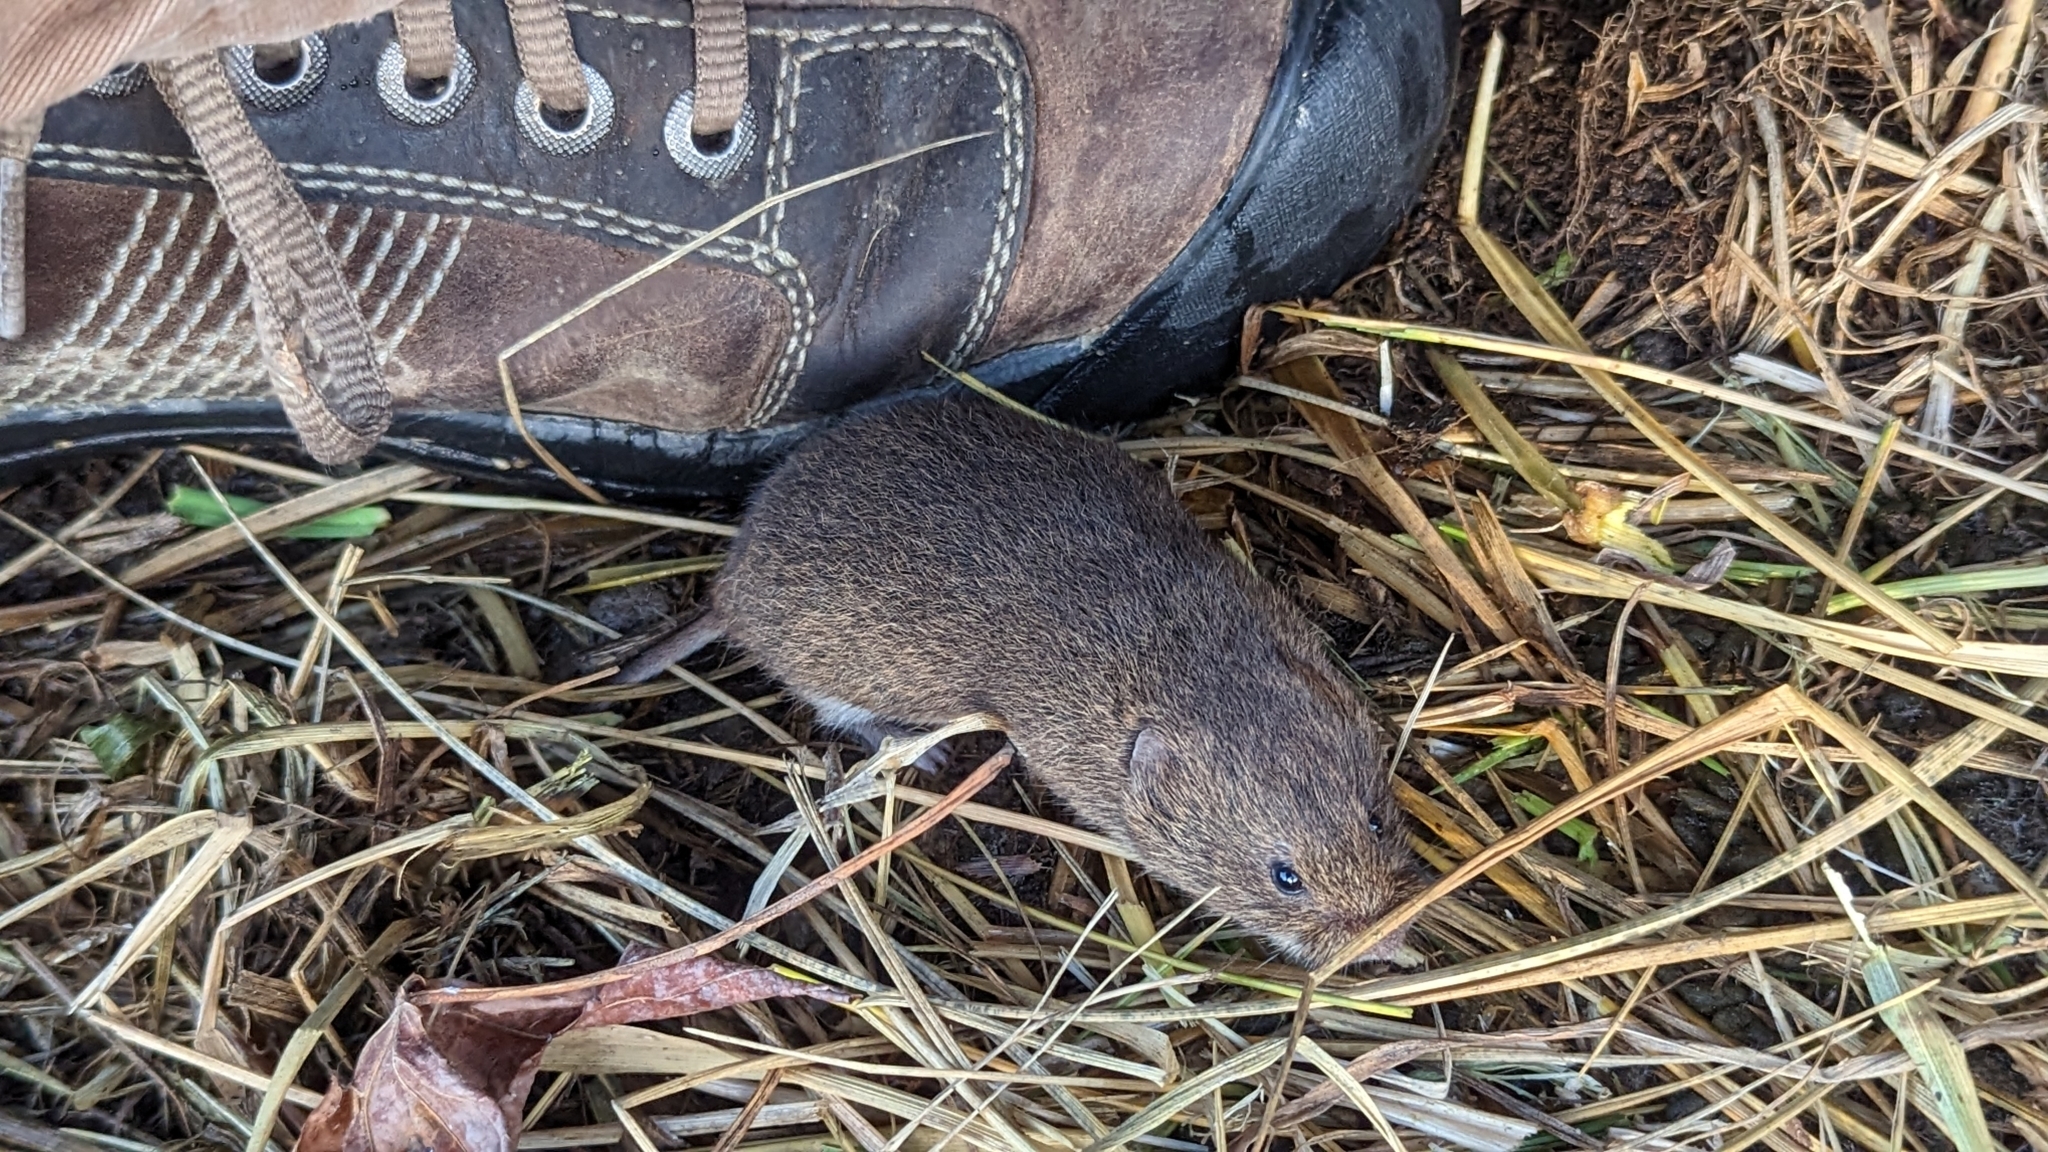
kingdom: Animalia
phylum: Chordata
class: Mammalia
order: Rodentia
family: Cricetidae
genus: Microtus
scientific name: Microtus pennsylvanicus
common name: Meadow vole
